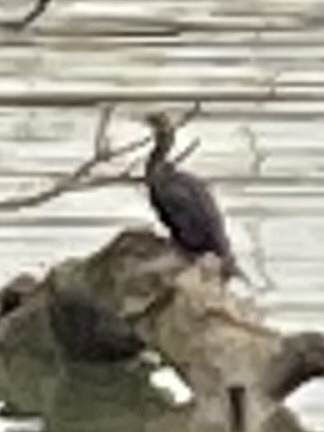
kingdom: Animalia
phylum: Chordata
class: Aves
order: Suliformes
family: Phalacrocoracidae
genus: Phalacrocorax
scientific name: Phalacrocorax auritus
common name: Double-crested cormorant
